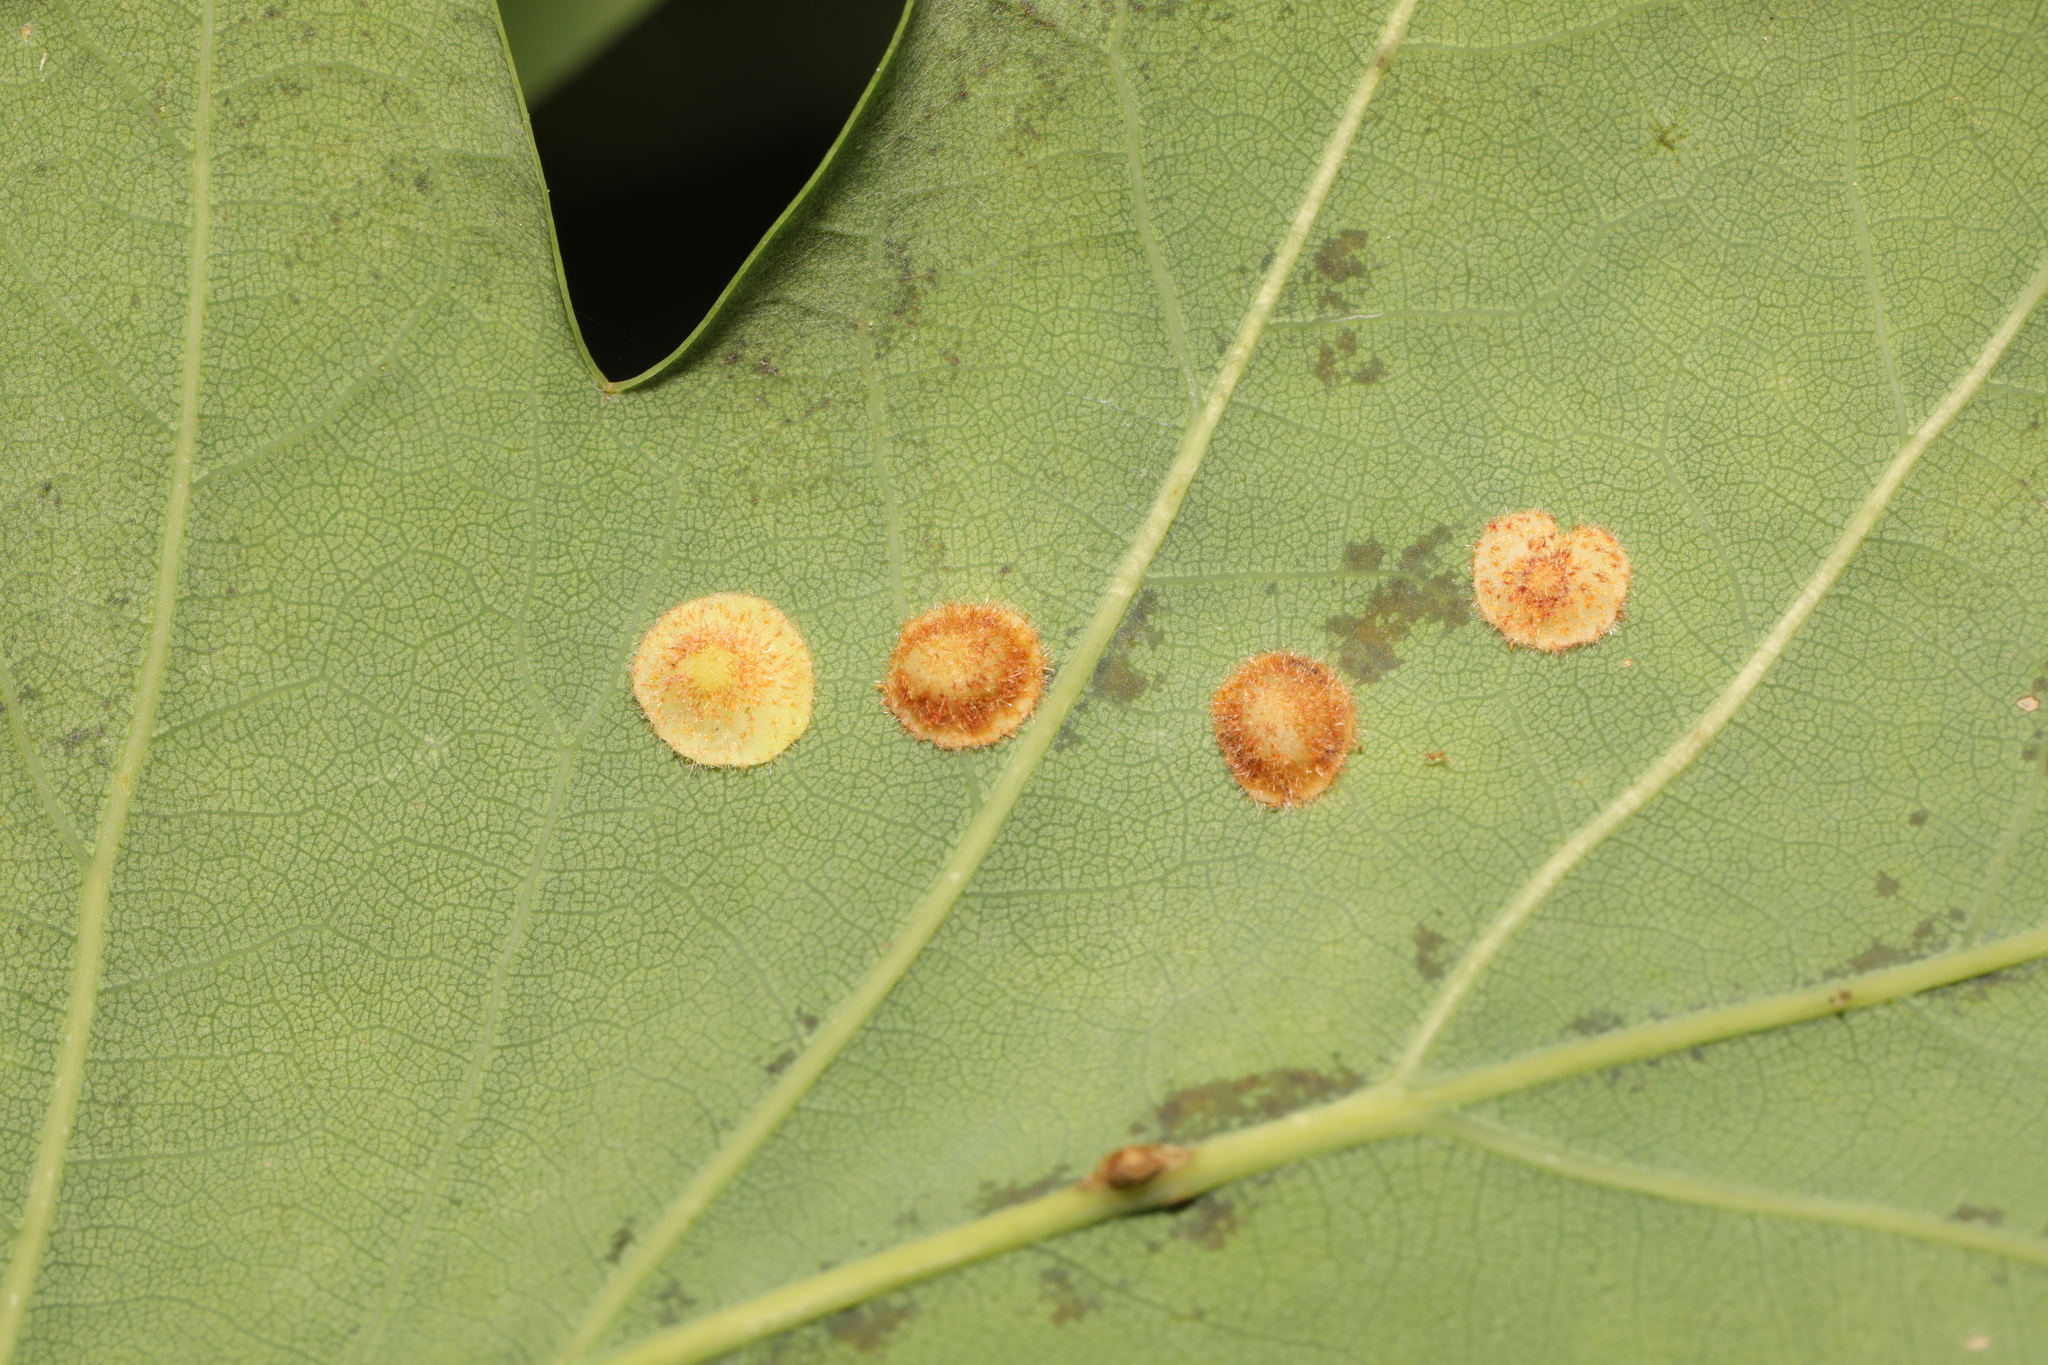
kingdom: Animalia
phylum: Arthropoda
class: Insecta
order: Hymenoptera
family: Cynipidae
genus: Neuroterus
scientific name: Neuroterus quercusbaccarum
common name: Common spangle gall
